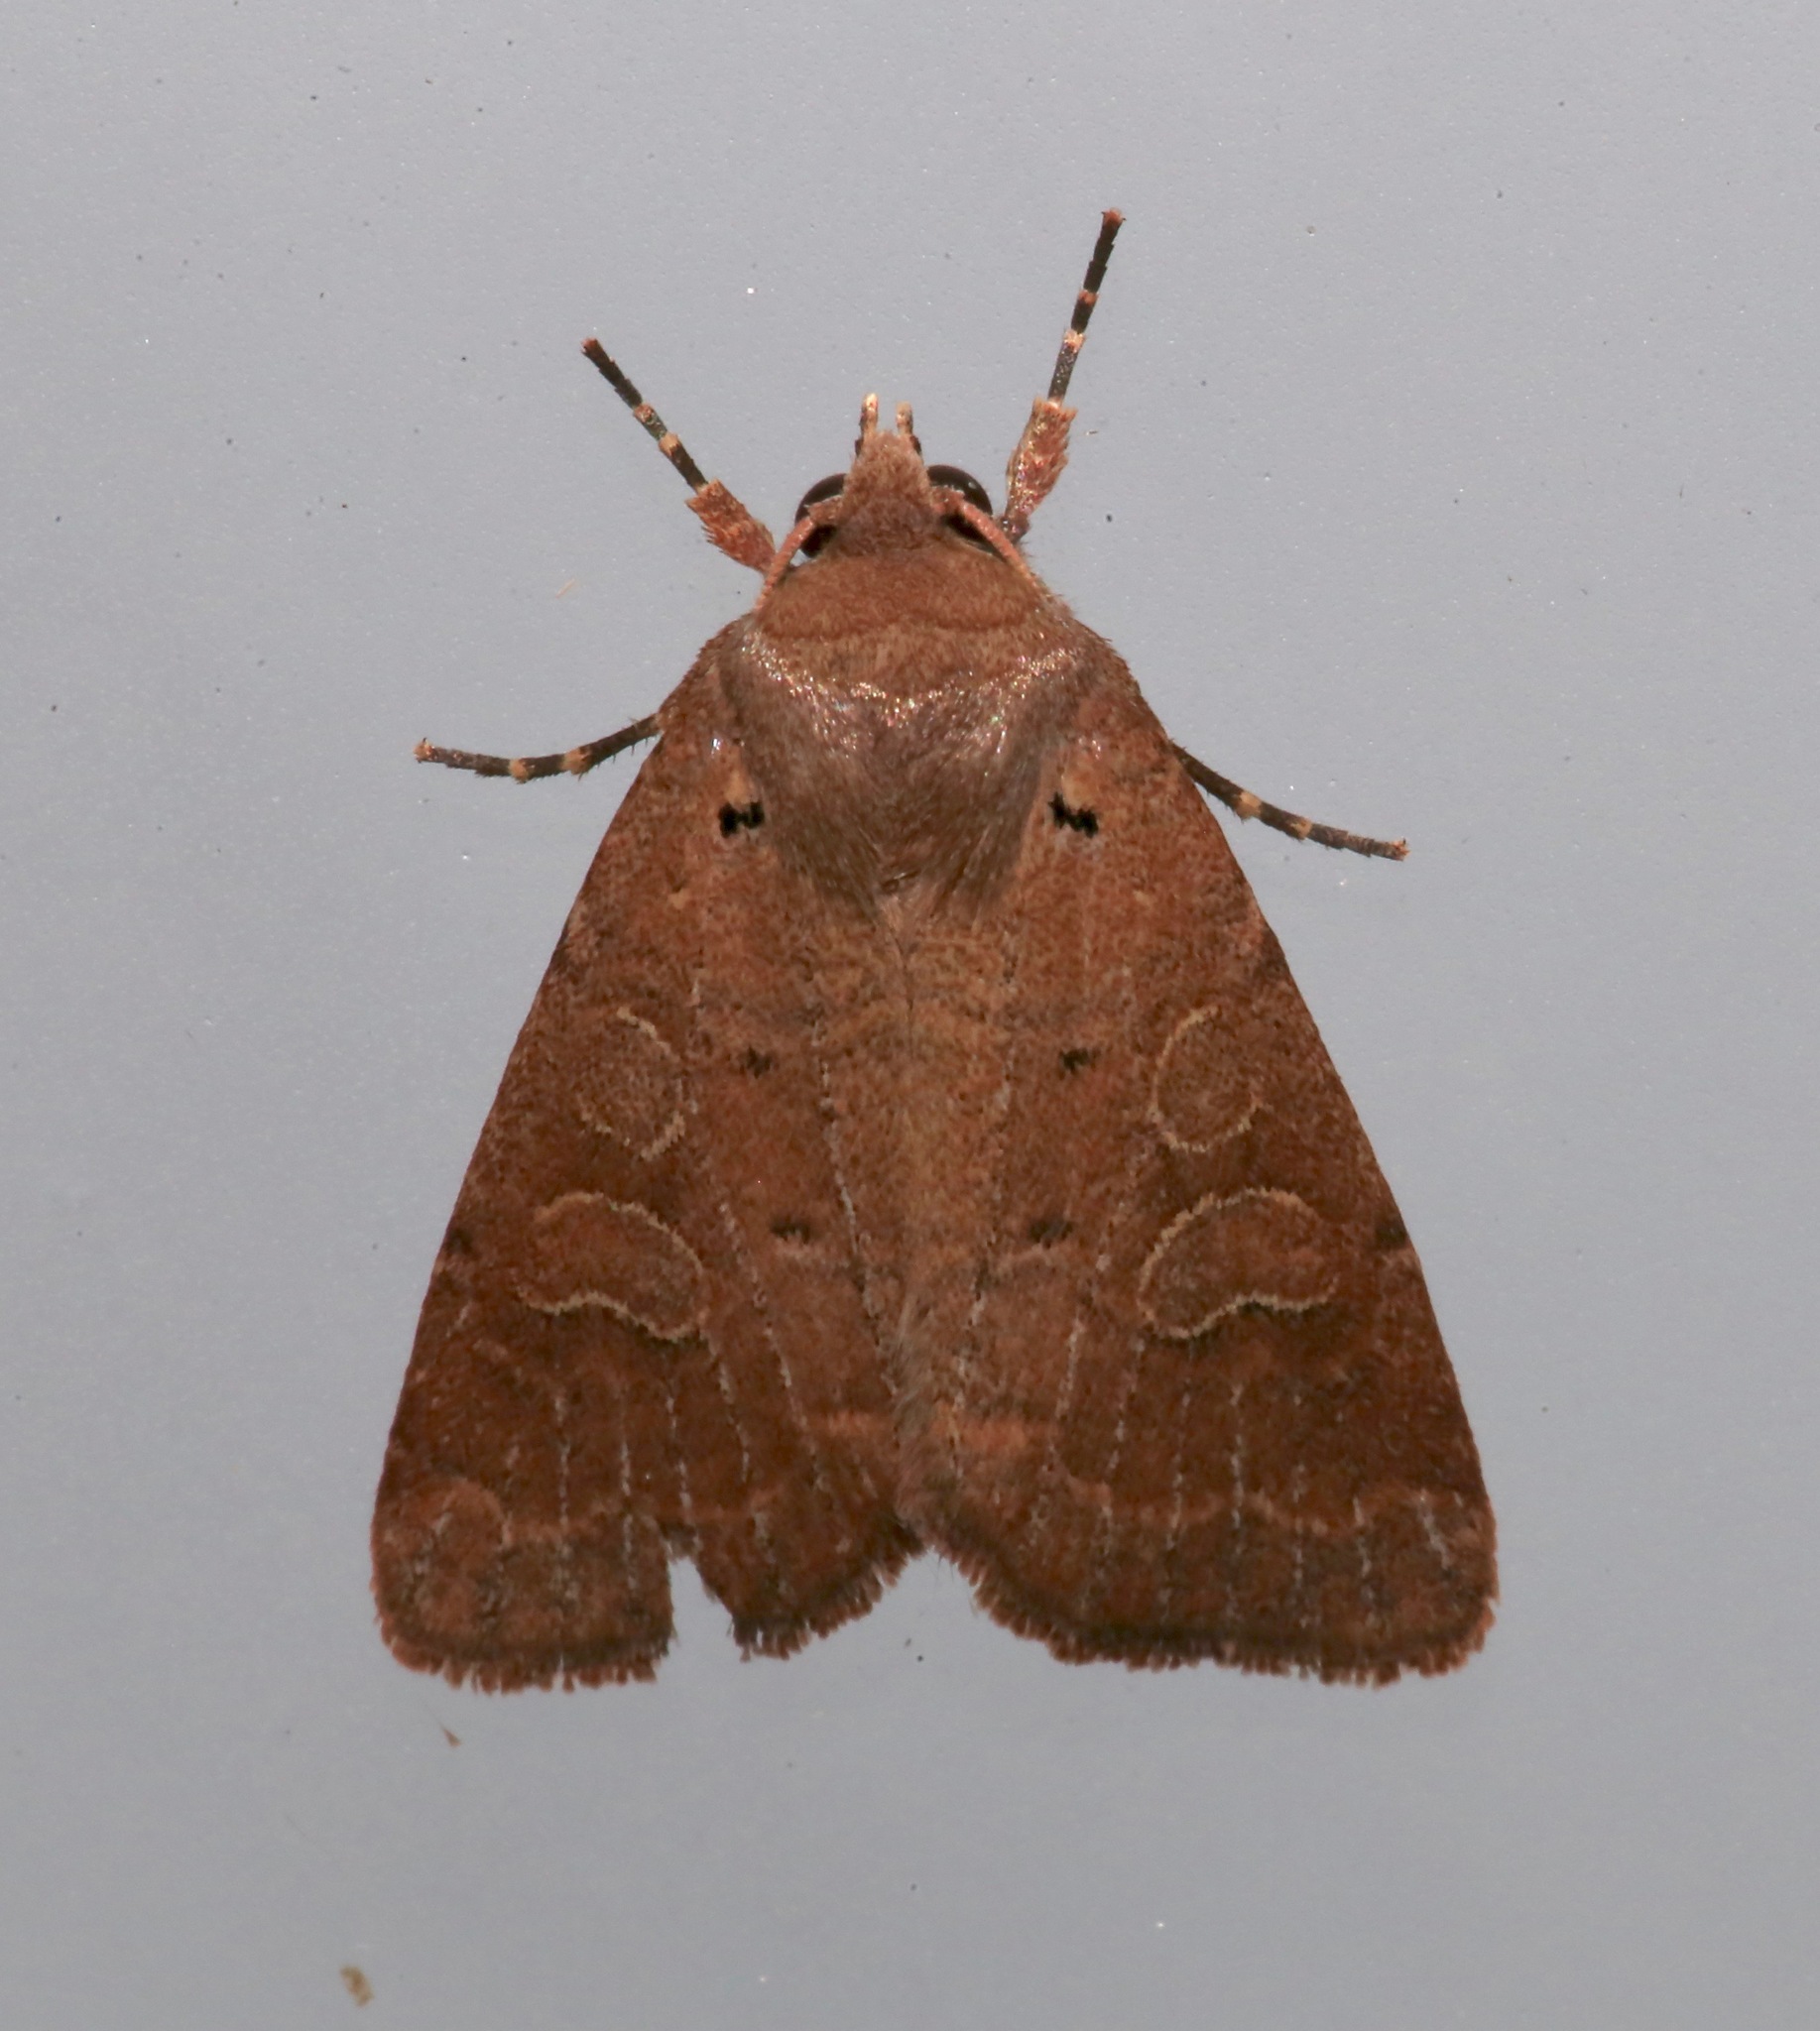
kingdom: Animalia
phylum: Arthropoda
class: Insecta
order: Lepidoptera
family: Noctuidae
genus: Kocakina
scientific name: Kocakina fidelis
